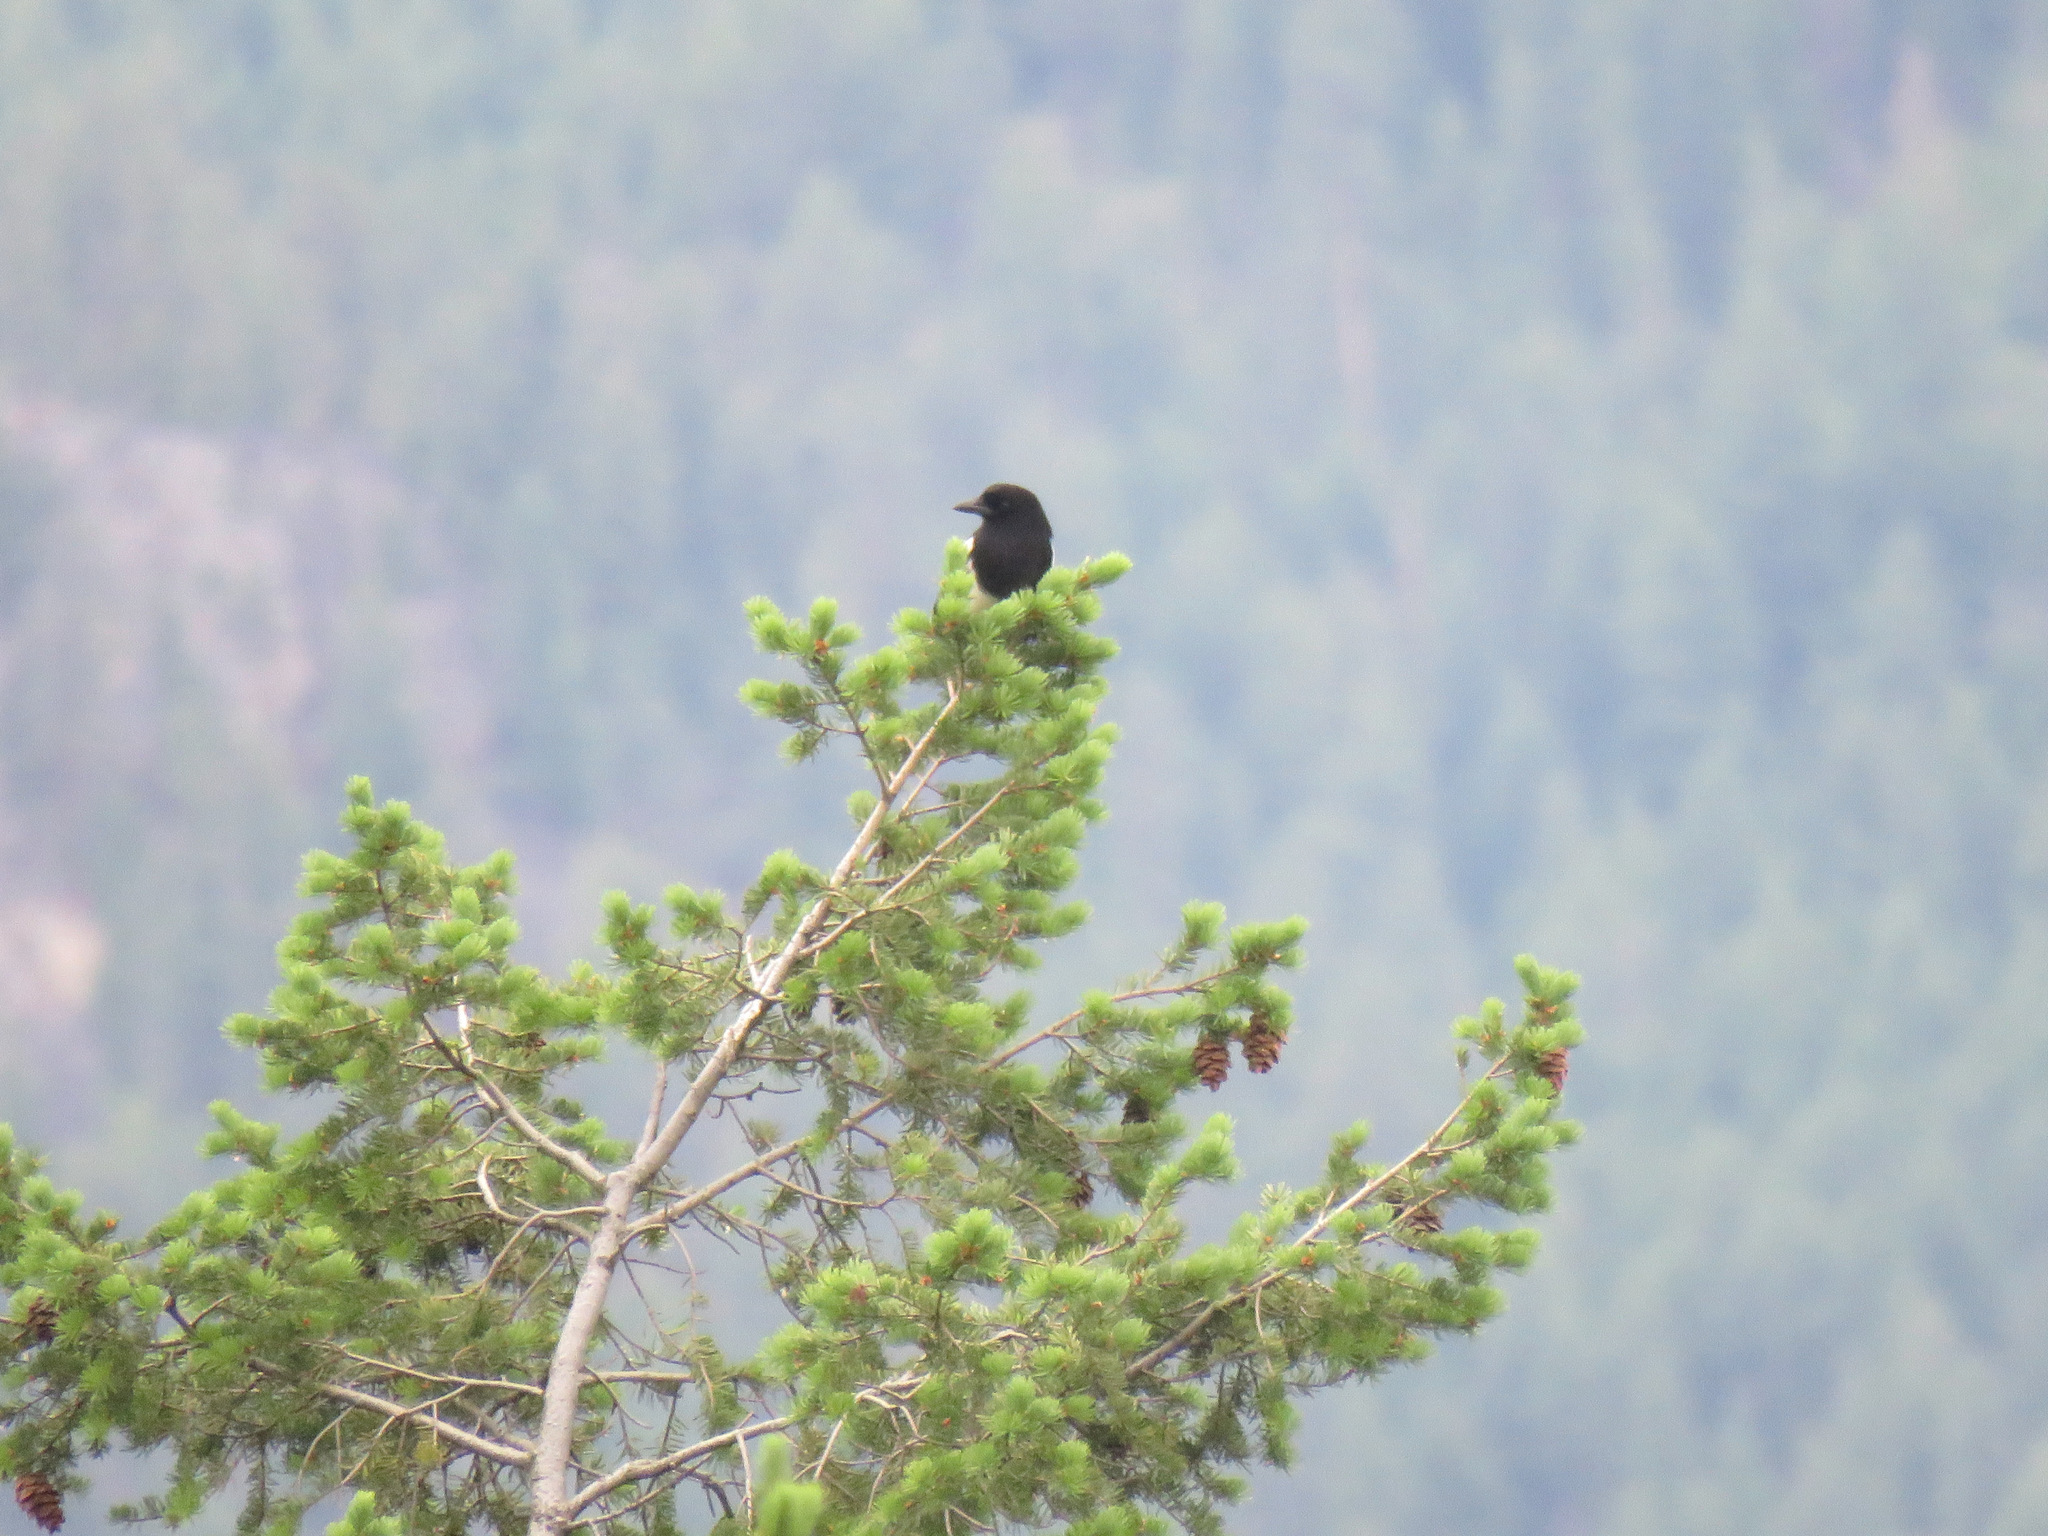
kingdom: Animalia
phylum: Chordata
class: Aves
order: Passeriformes
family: Corvidae
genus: Pica
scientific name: Pica hudsonia
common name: Black-billed magpie
